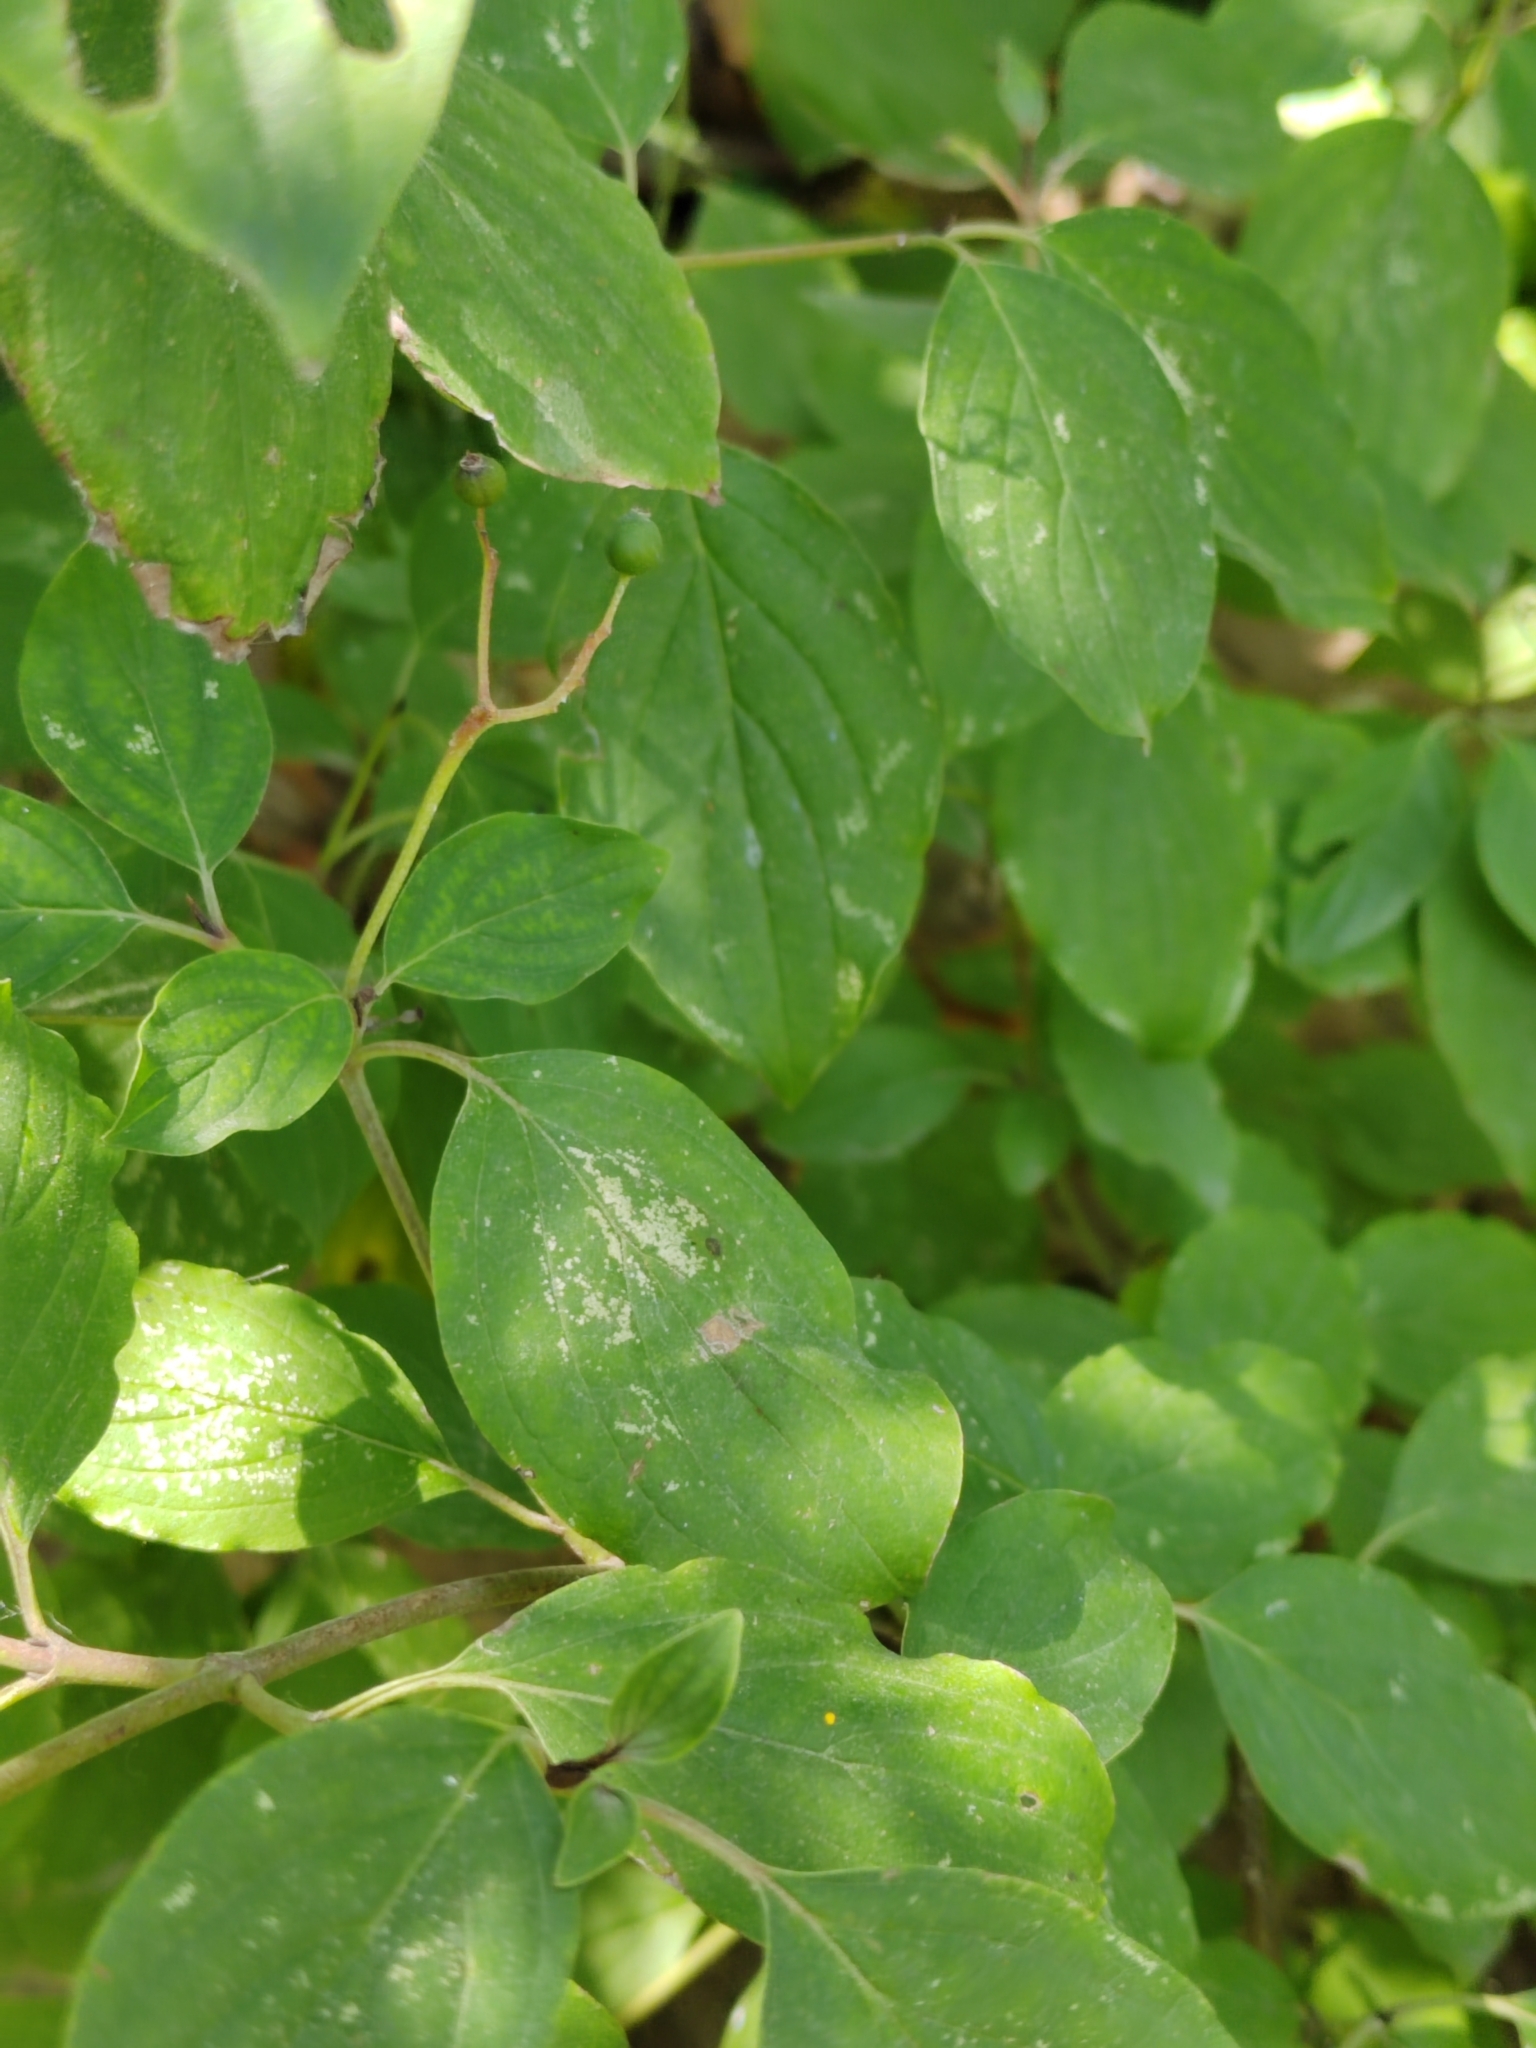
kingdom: Plantae
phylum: Tracheophyta
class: Magnoliopsida
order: Cornales
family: Cornaceae
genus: Cornus
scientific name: Cornus sanguinea
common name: Dogwood
